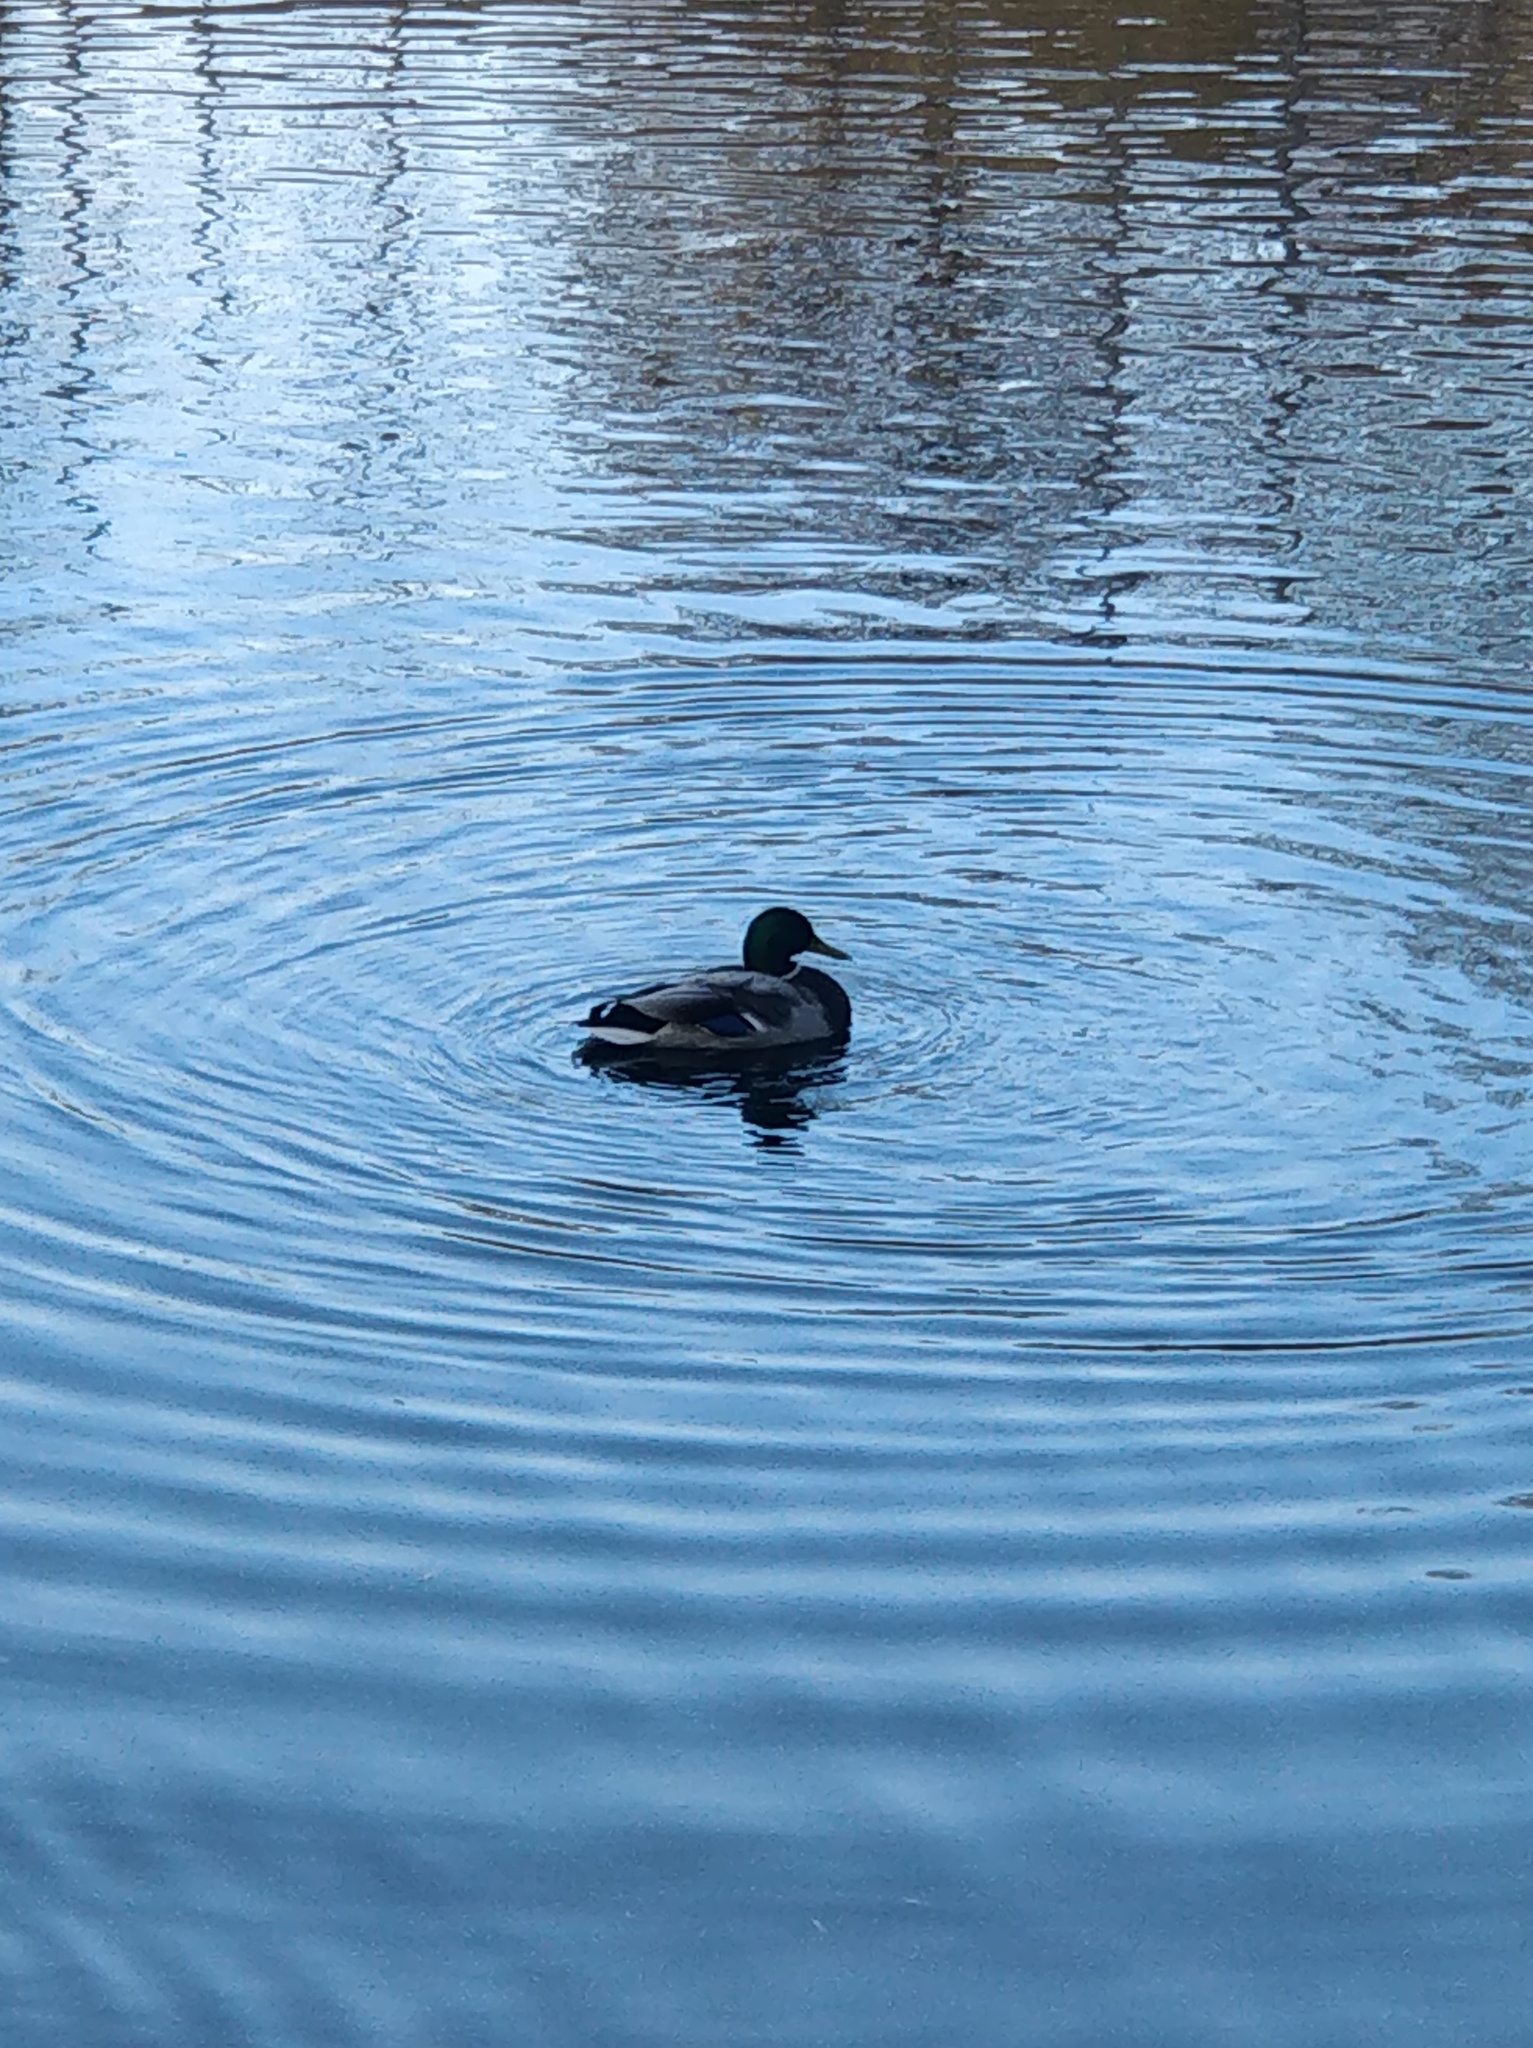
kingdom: Animalia
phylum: Chordata
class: Aves
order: Anseriformes
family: Anatidae
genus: Anas
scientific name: Anas platyrhynchos
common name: Mallard
